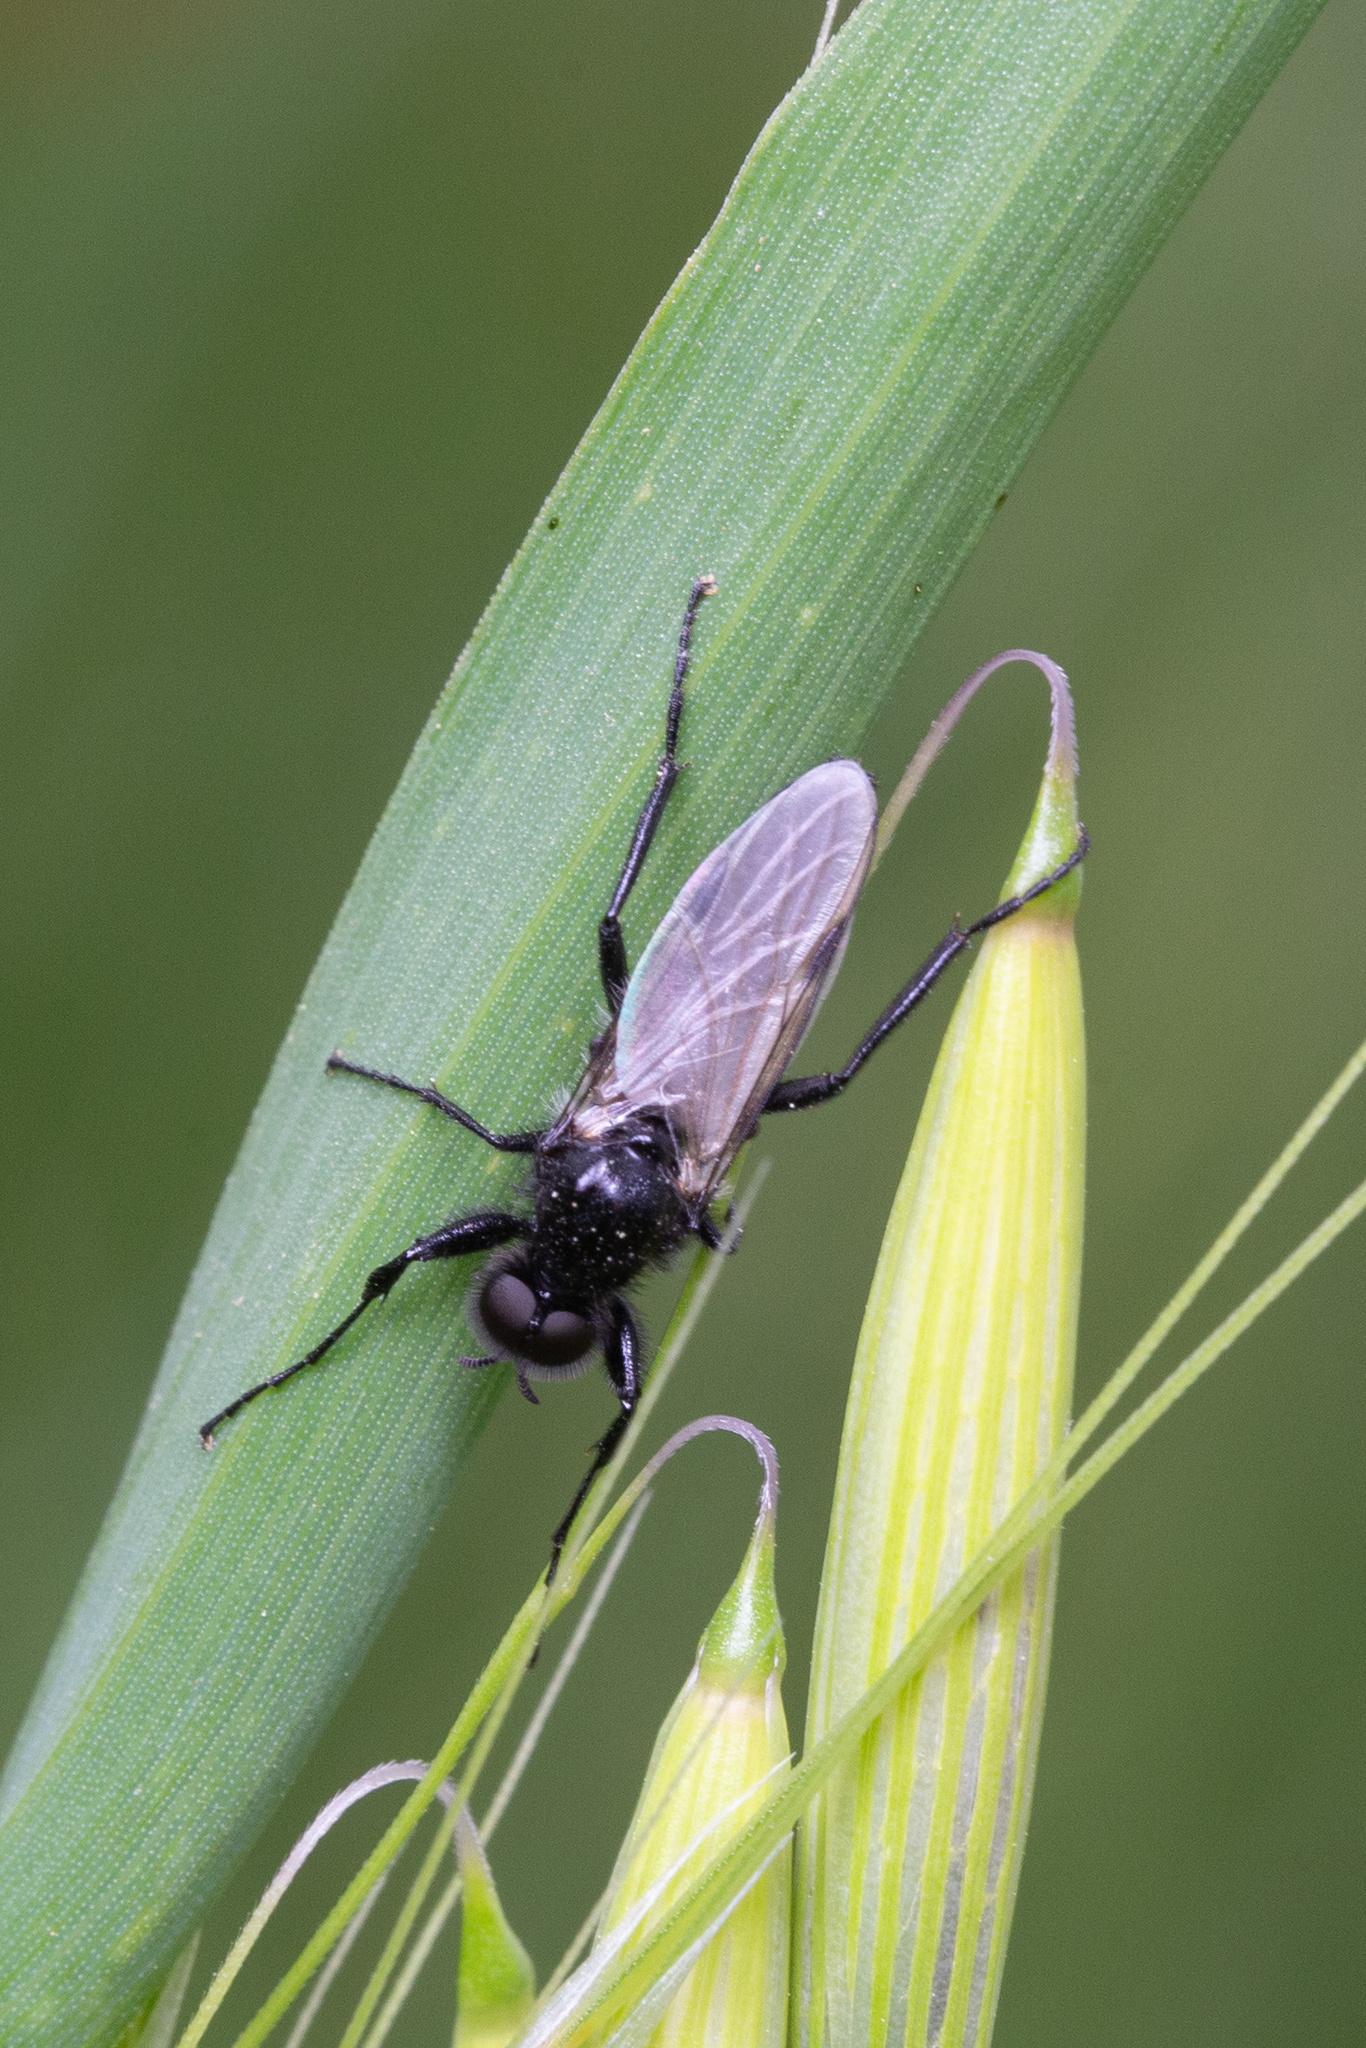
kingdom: Animalia
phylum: Arthropoda
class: Insecta
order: Diptera
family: Bibionidae
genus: Bibio
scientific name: Bibio
